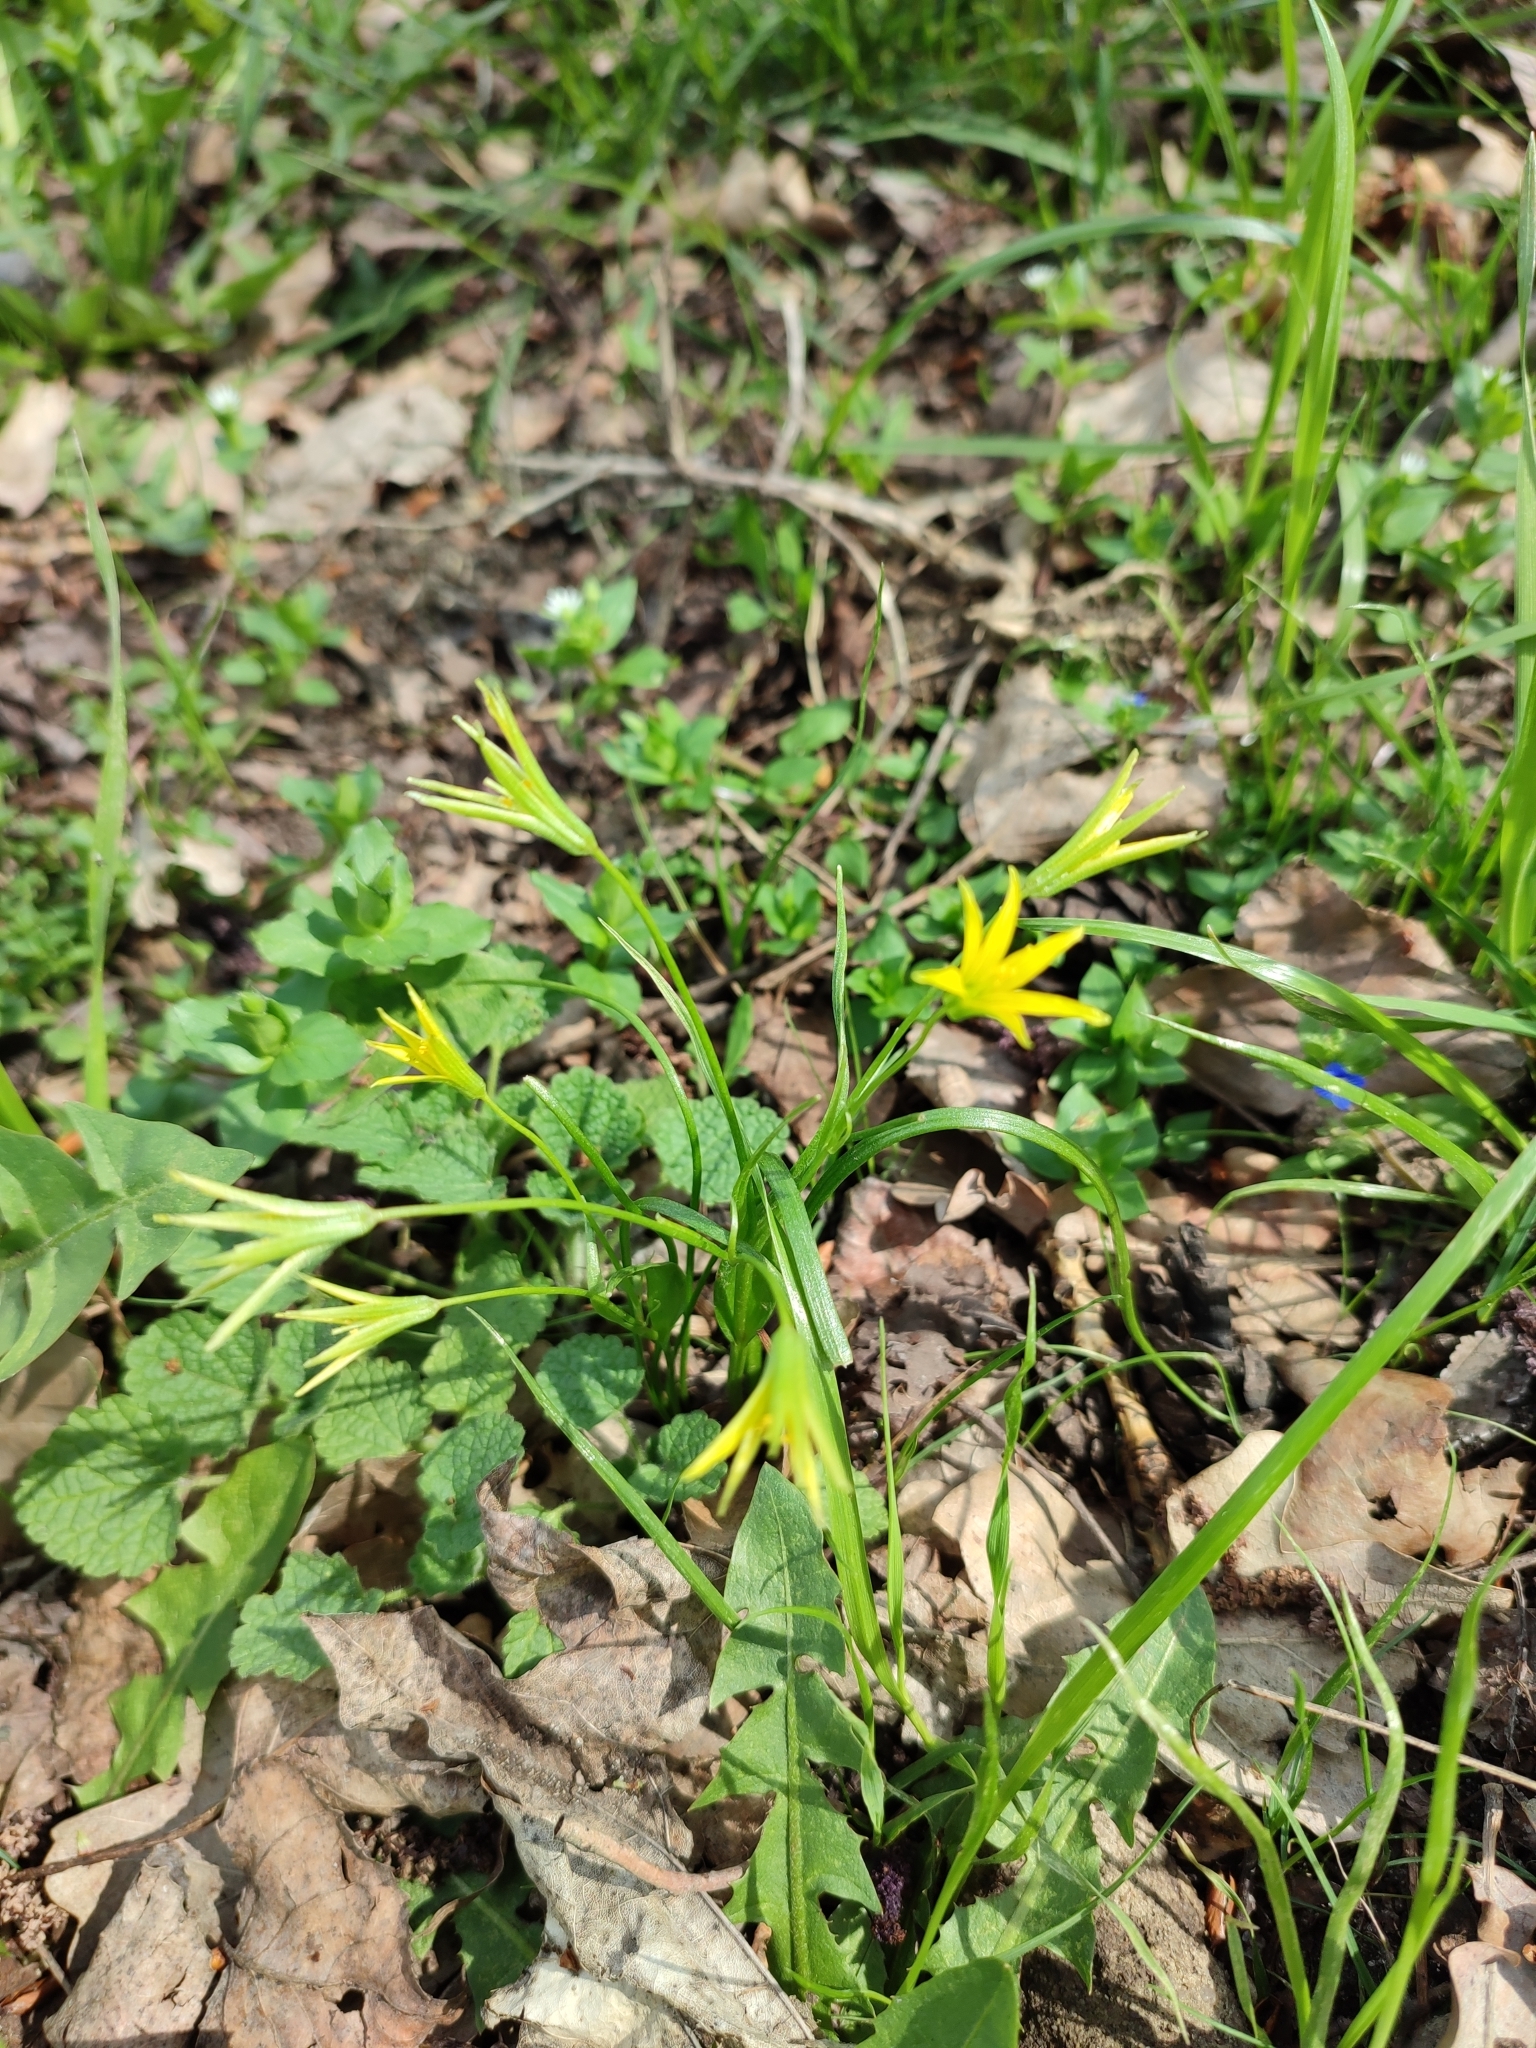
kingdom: Plantae
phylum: Tracheophyta
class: Liliopsida
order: Liliales
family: Liliaceae
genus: Gagea
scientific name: Gagea minima
